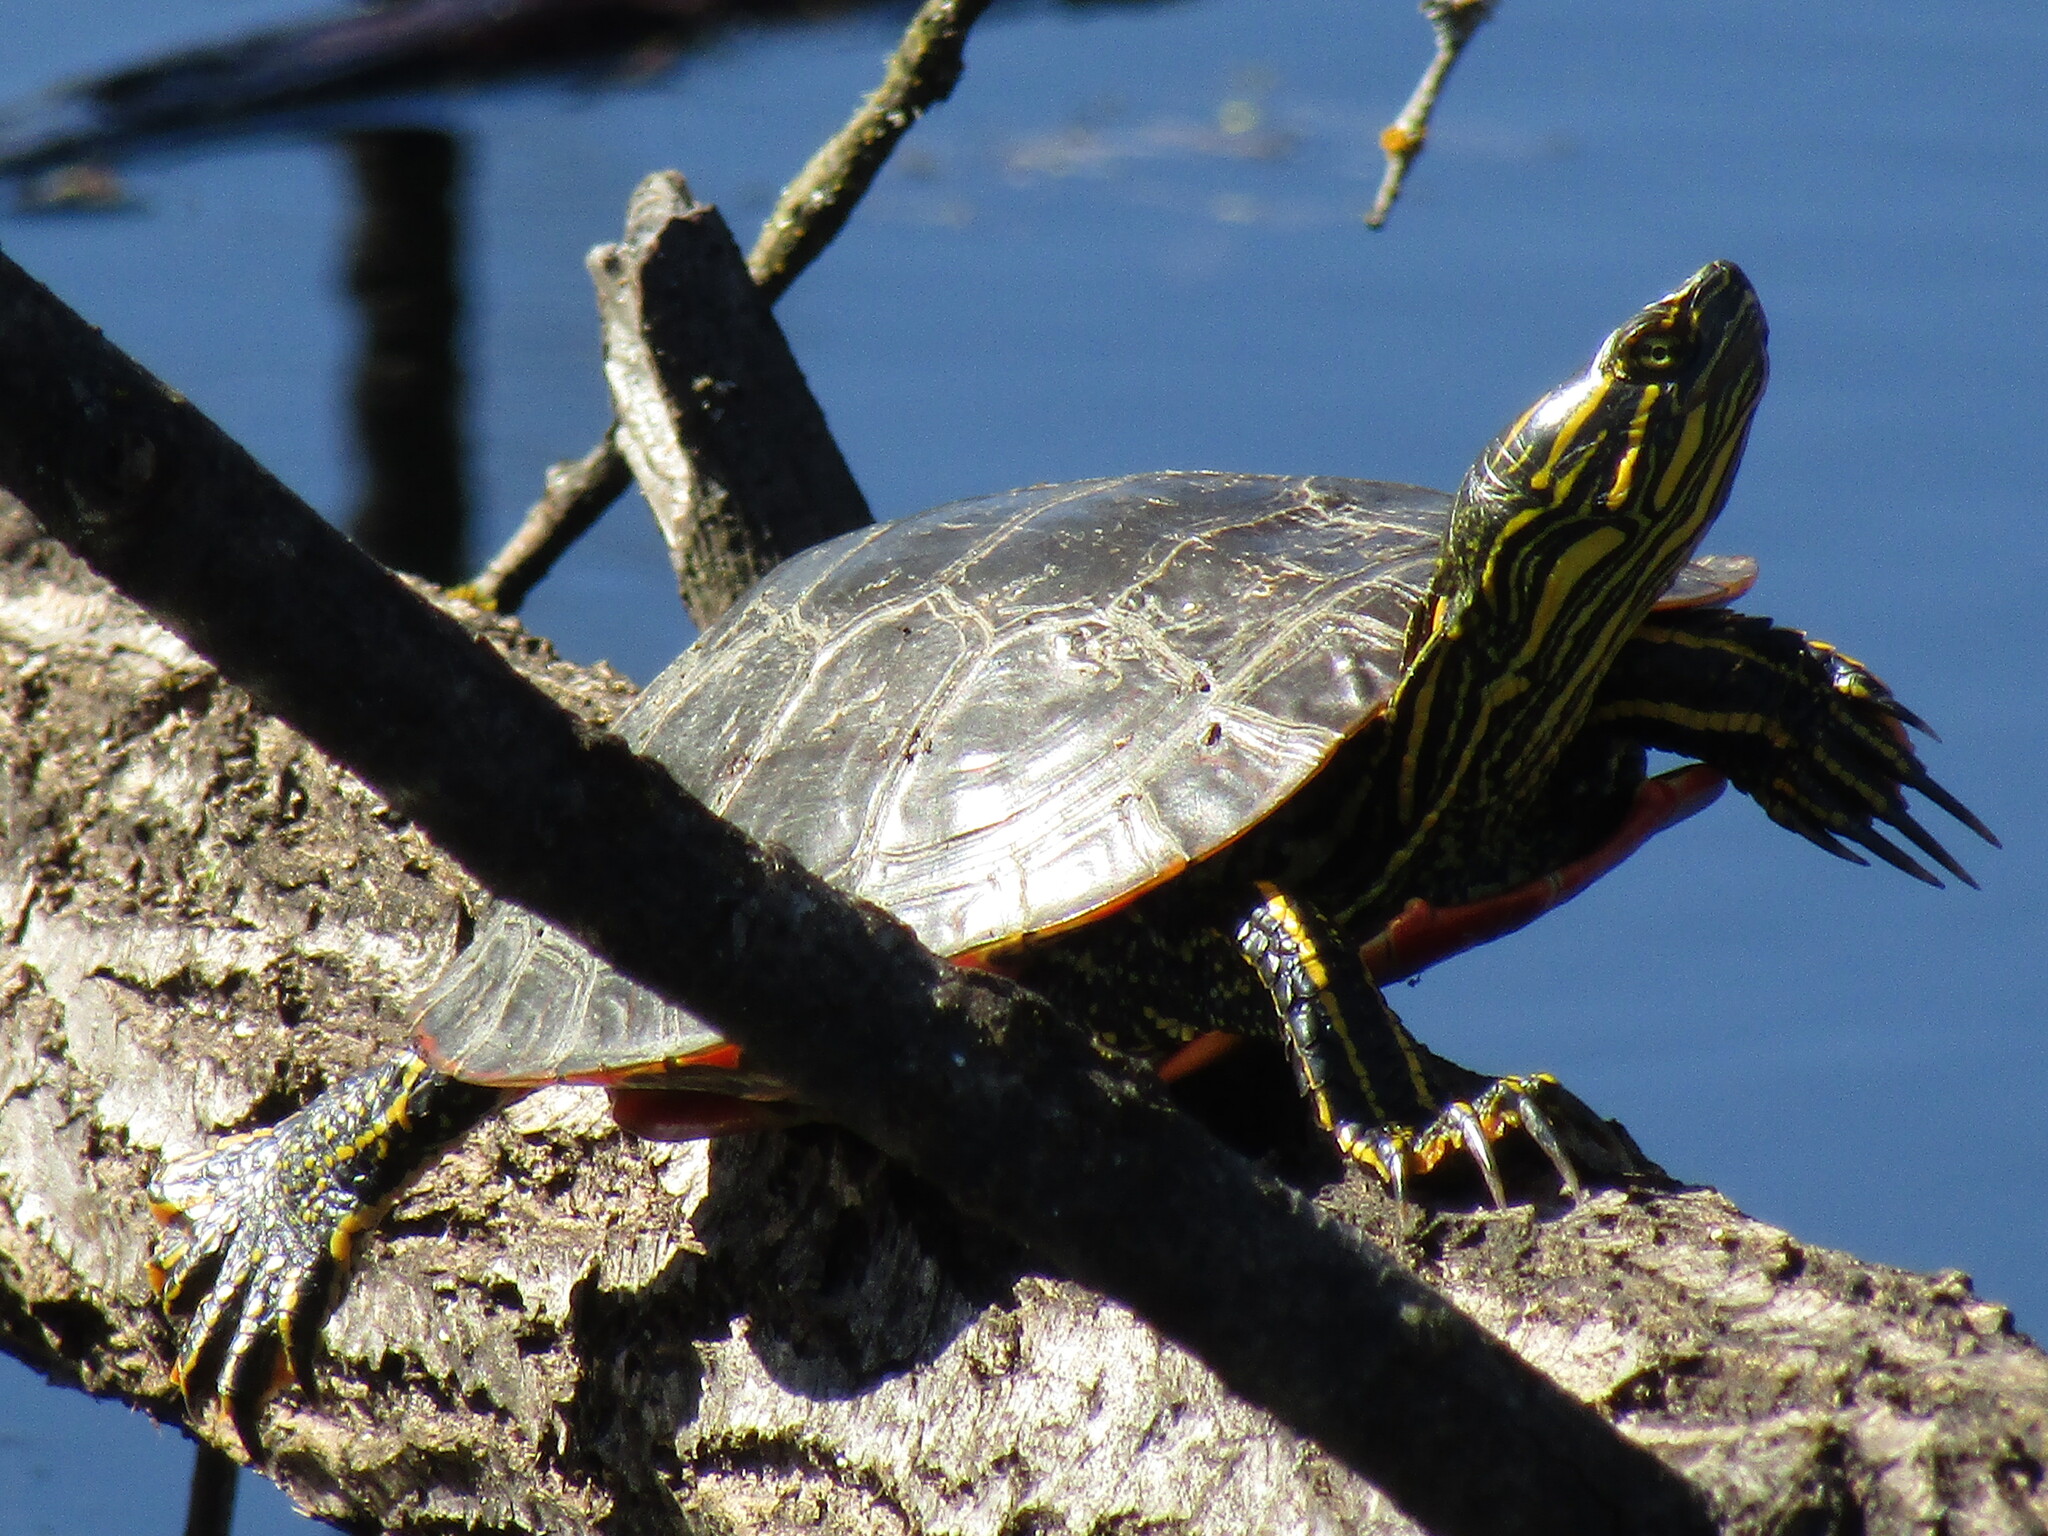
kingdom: Animalia
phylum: Chordata
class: Testudines
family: Emydidae
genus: Chrysemys
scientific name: Chrysemys picta
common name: Painted turtle
